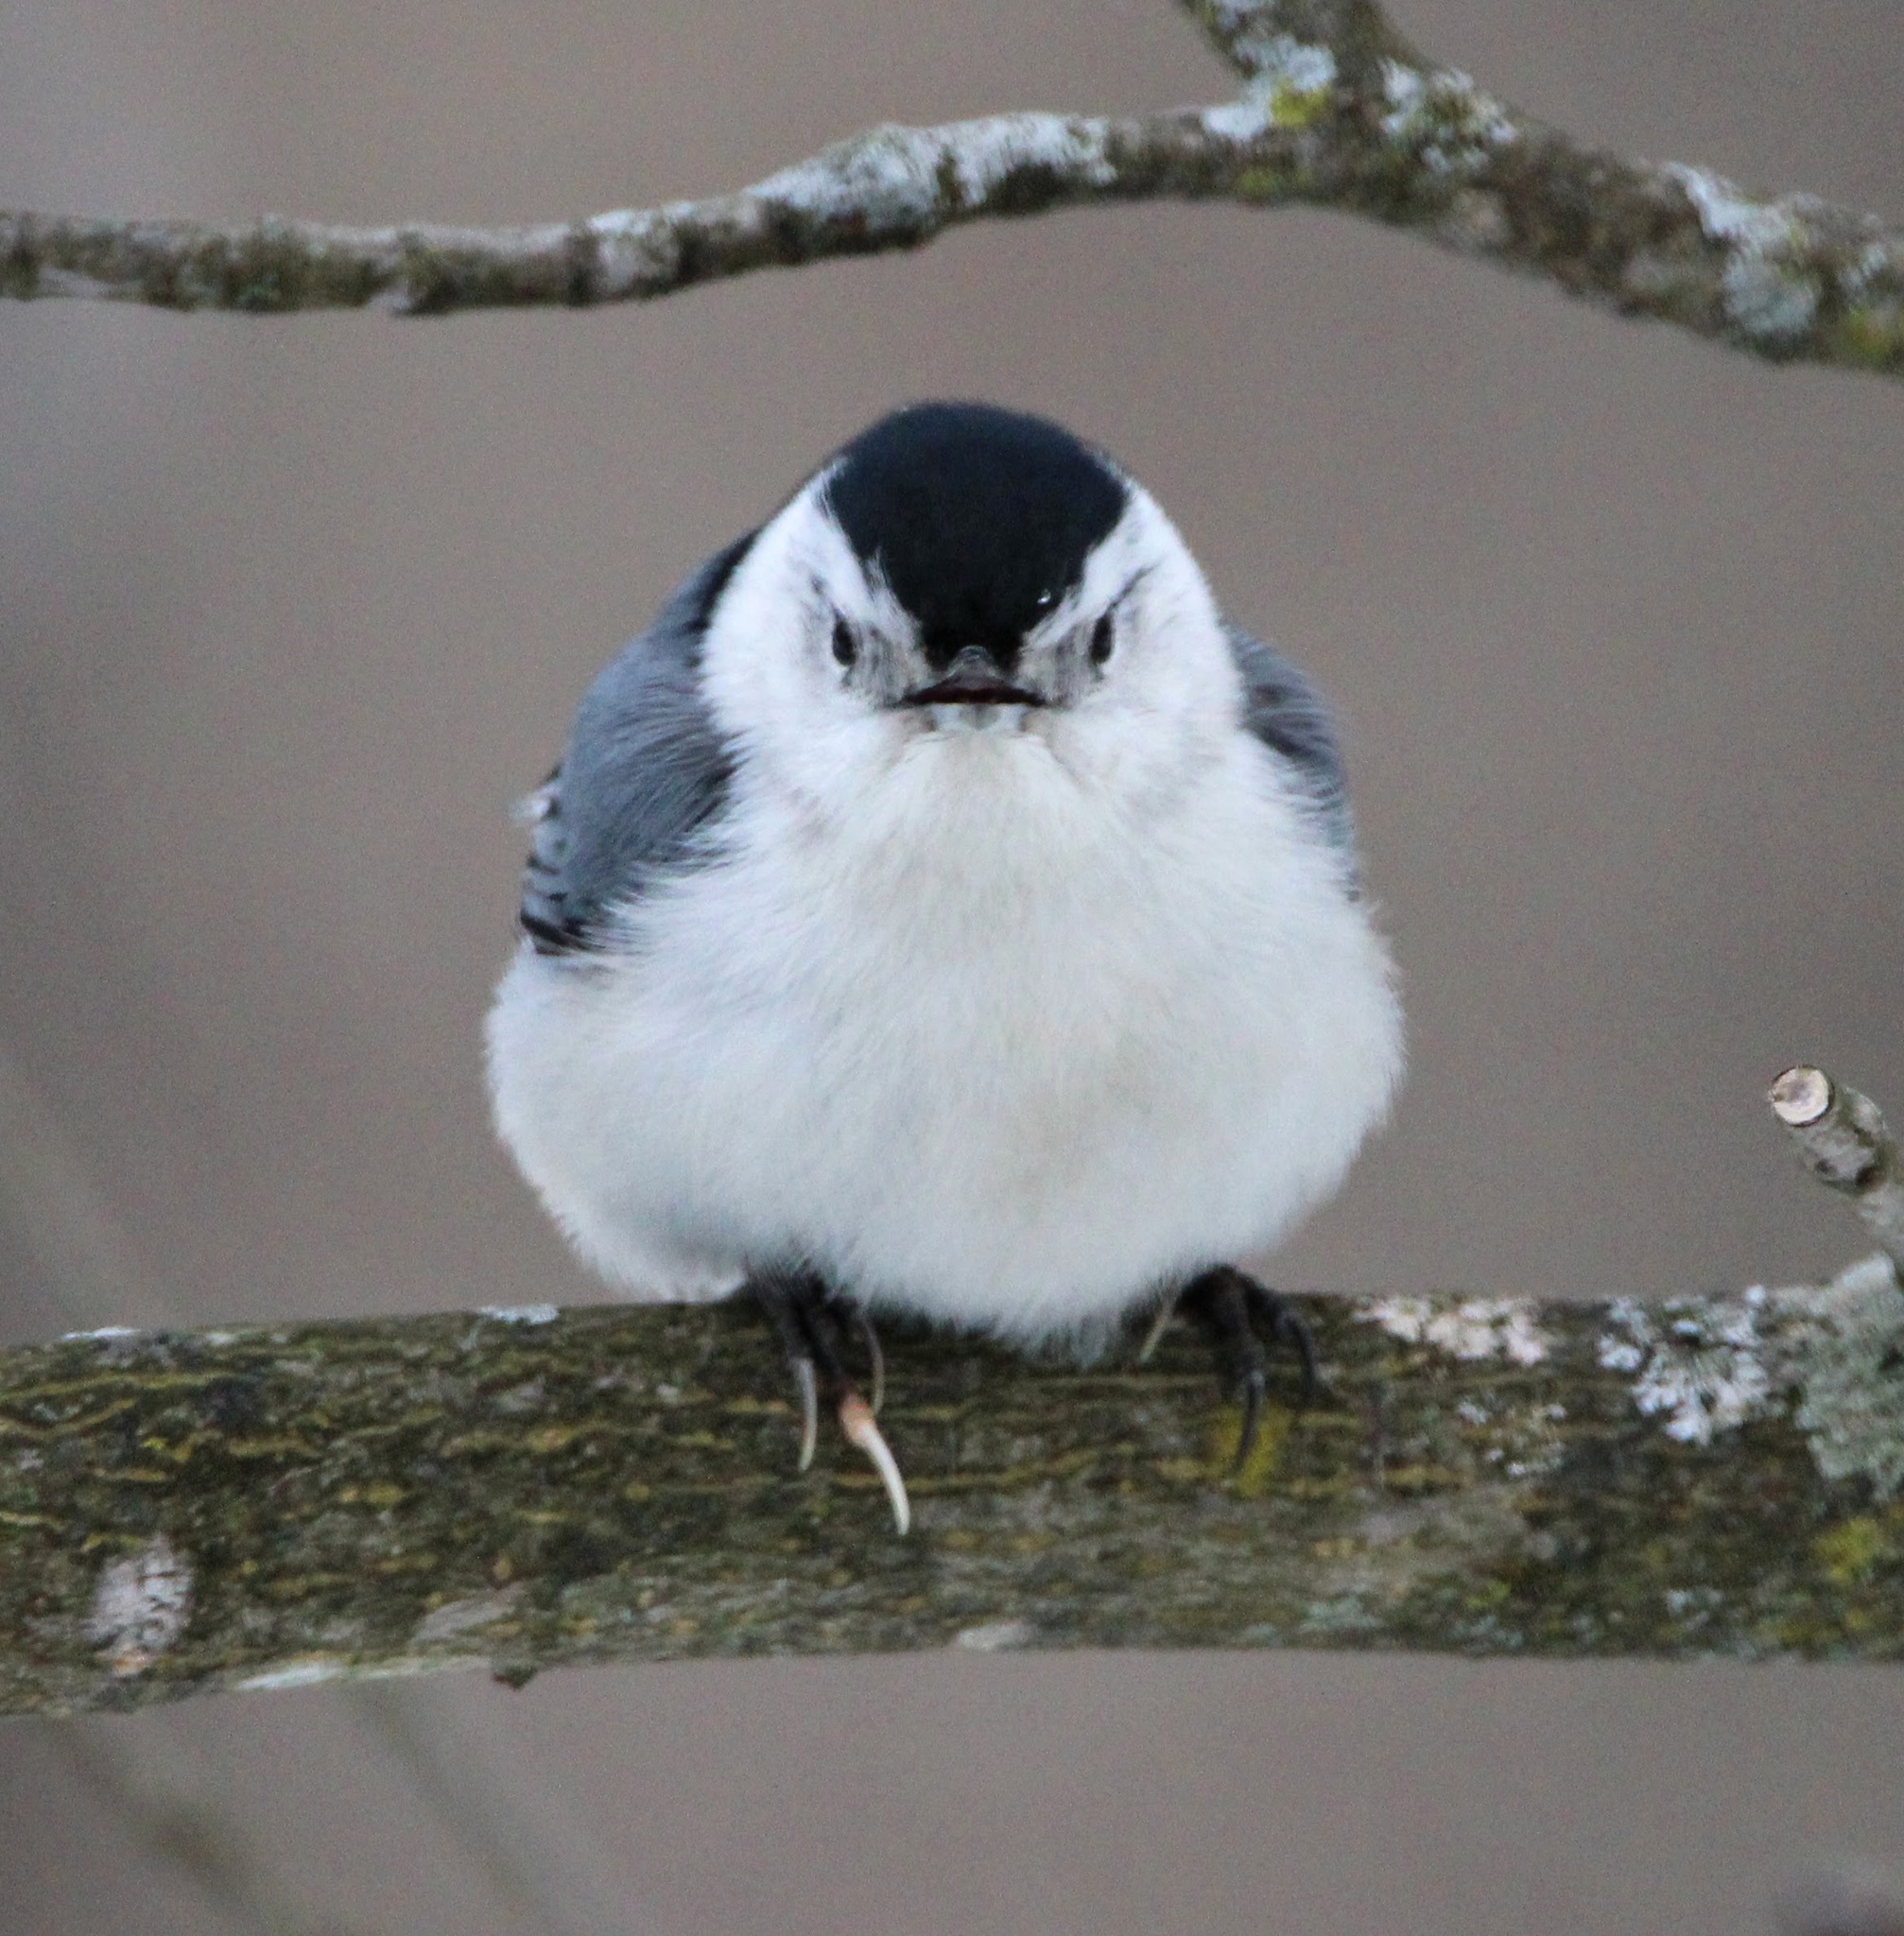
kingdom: Animalia
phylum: Chordata
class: Aves
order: Passeriformes
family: Sittidae
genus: Sitta
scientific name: Sitta carolinensis
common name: White-breasted nuthatch
